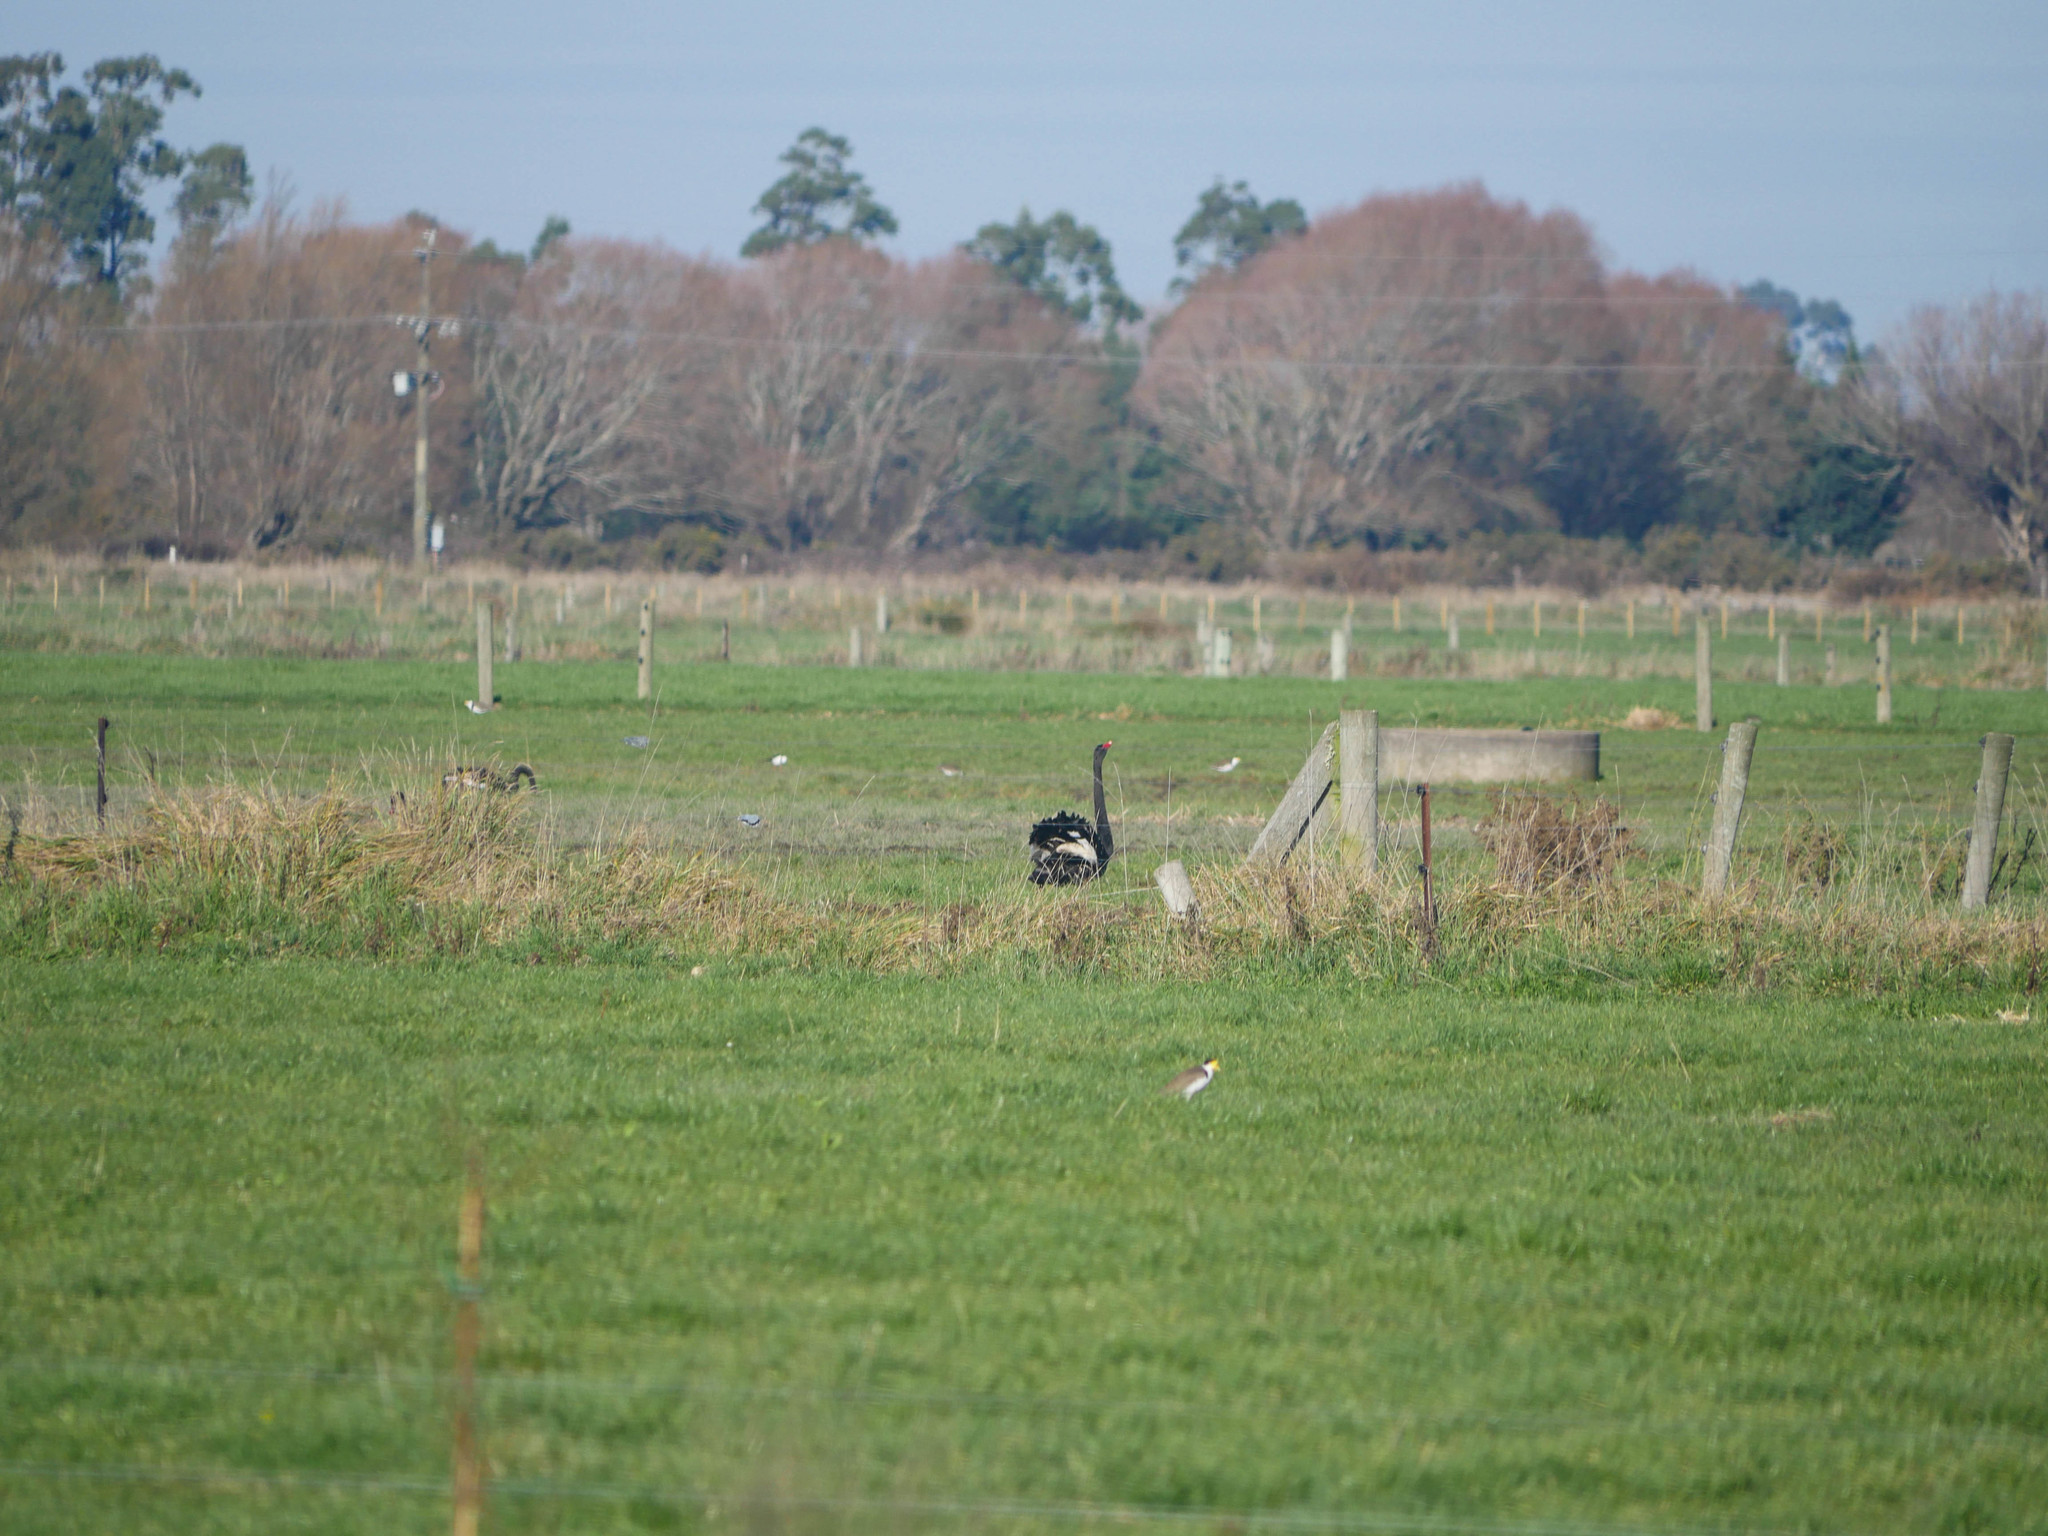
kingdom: Animalia
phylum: Chordata
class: Aves
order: Anseriformes
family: Anatidae
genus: Cygnus
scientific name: Cygnus atratus
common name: Black swan
